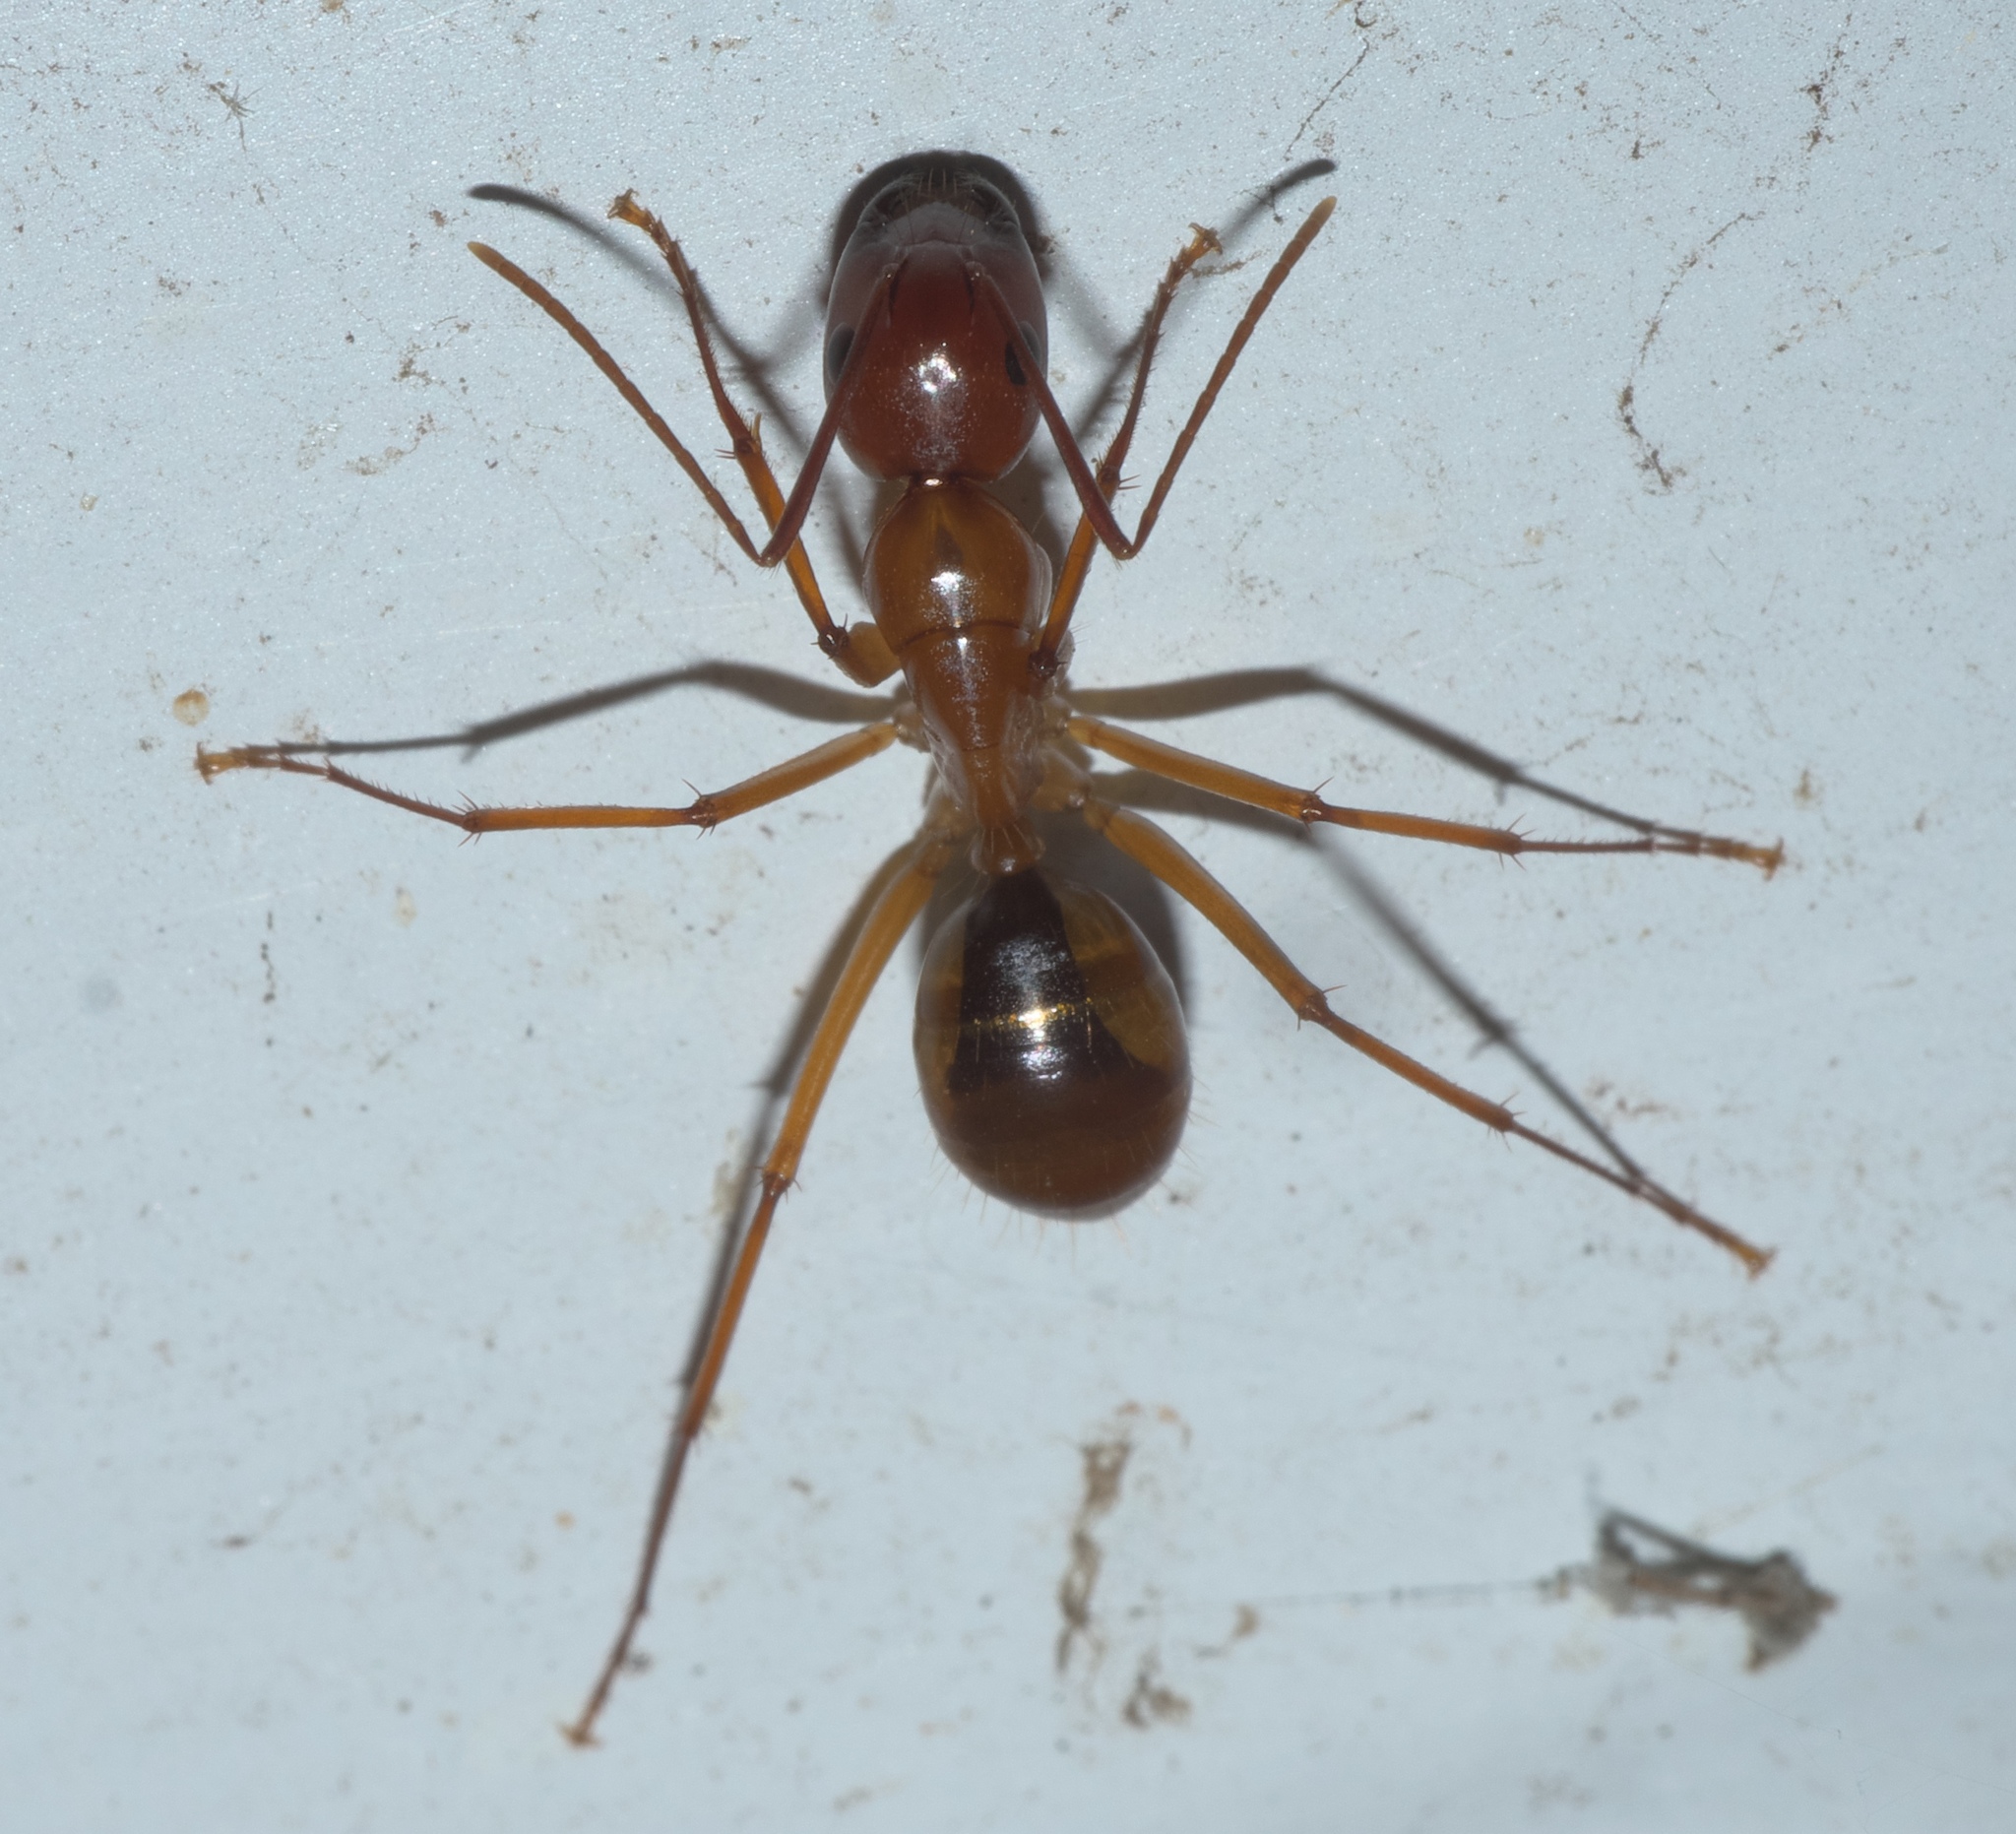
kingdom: Animalia
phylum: Arthropoda
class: Insecta
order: Hymenoptera
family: Formicidae
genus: Camponotus
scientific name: Camponotus castaneus
